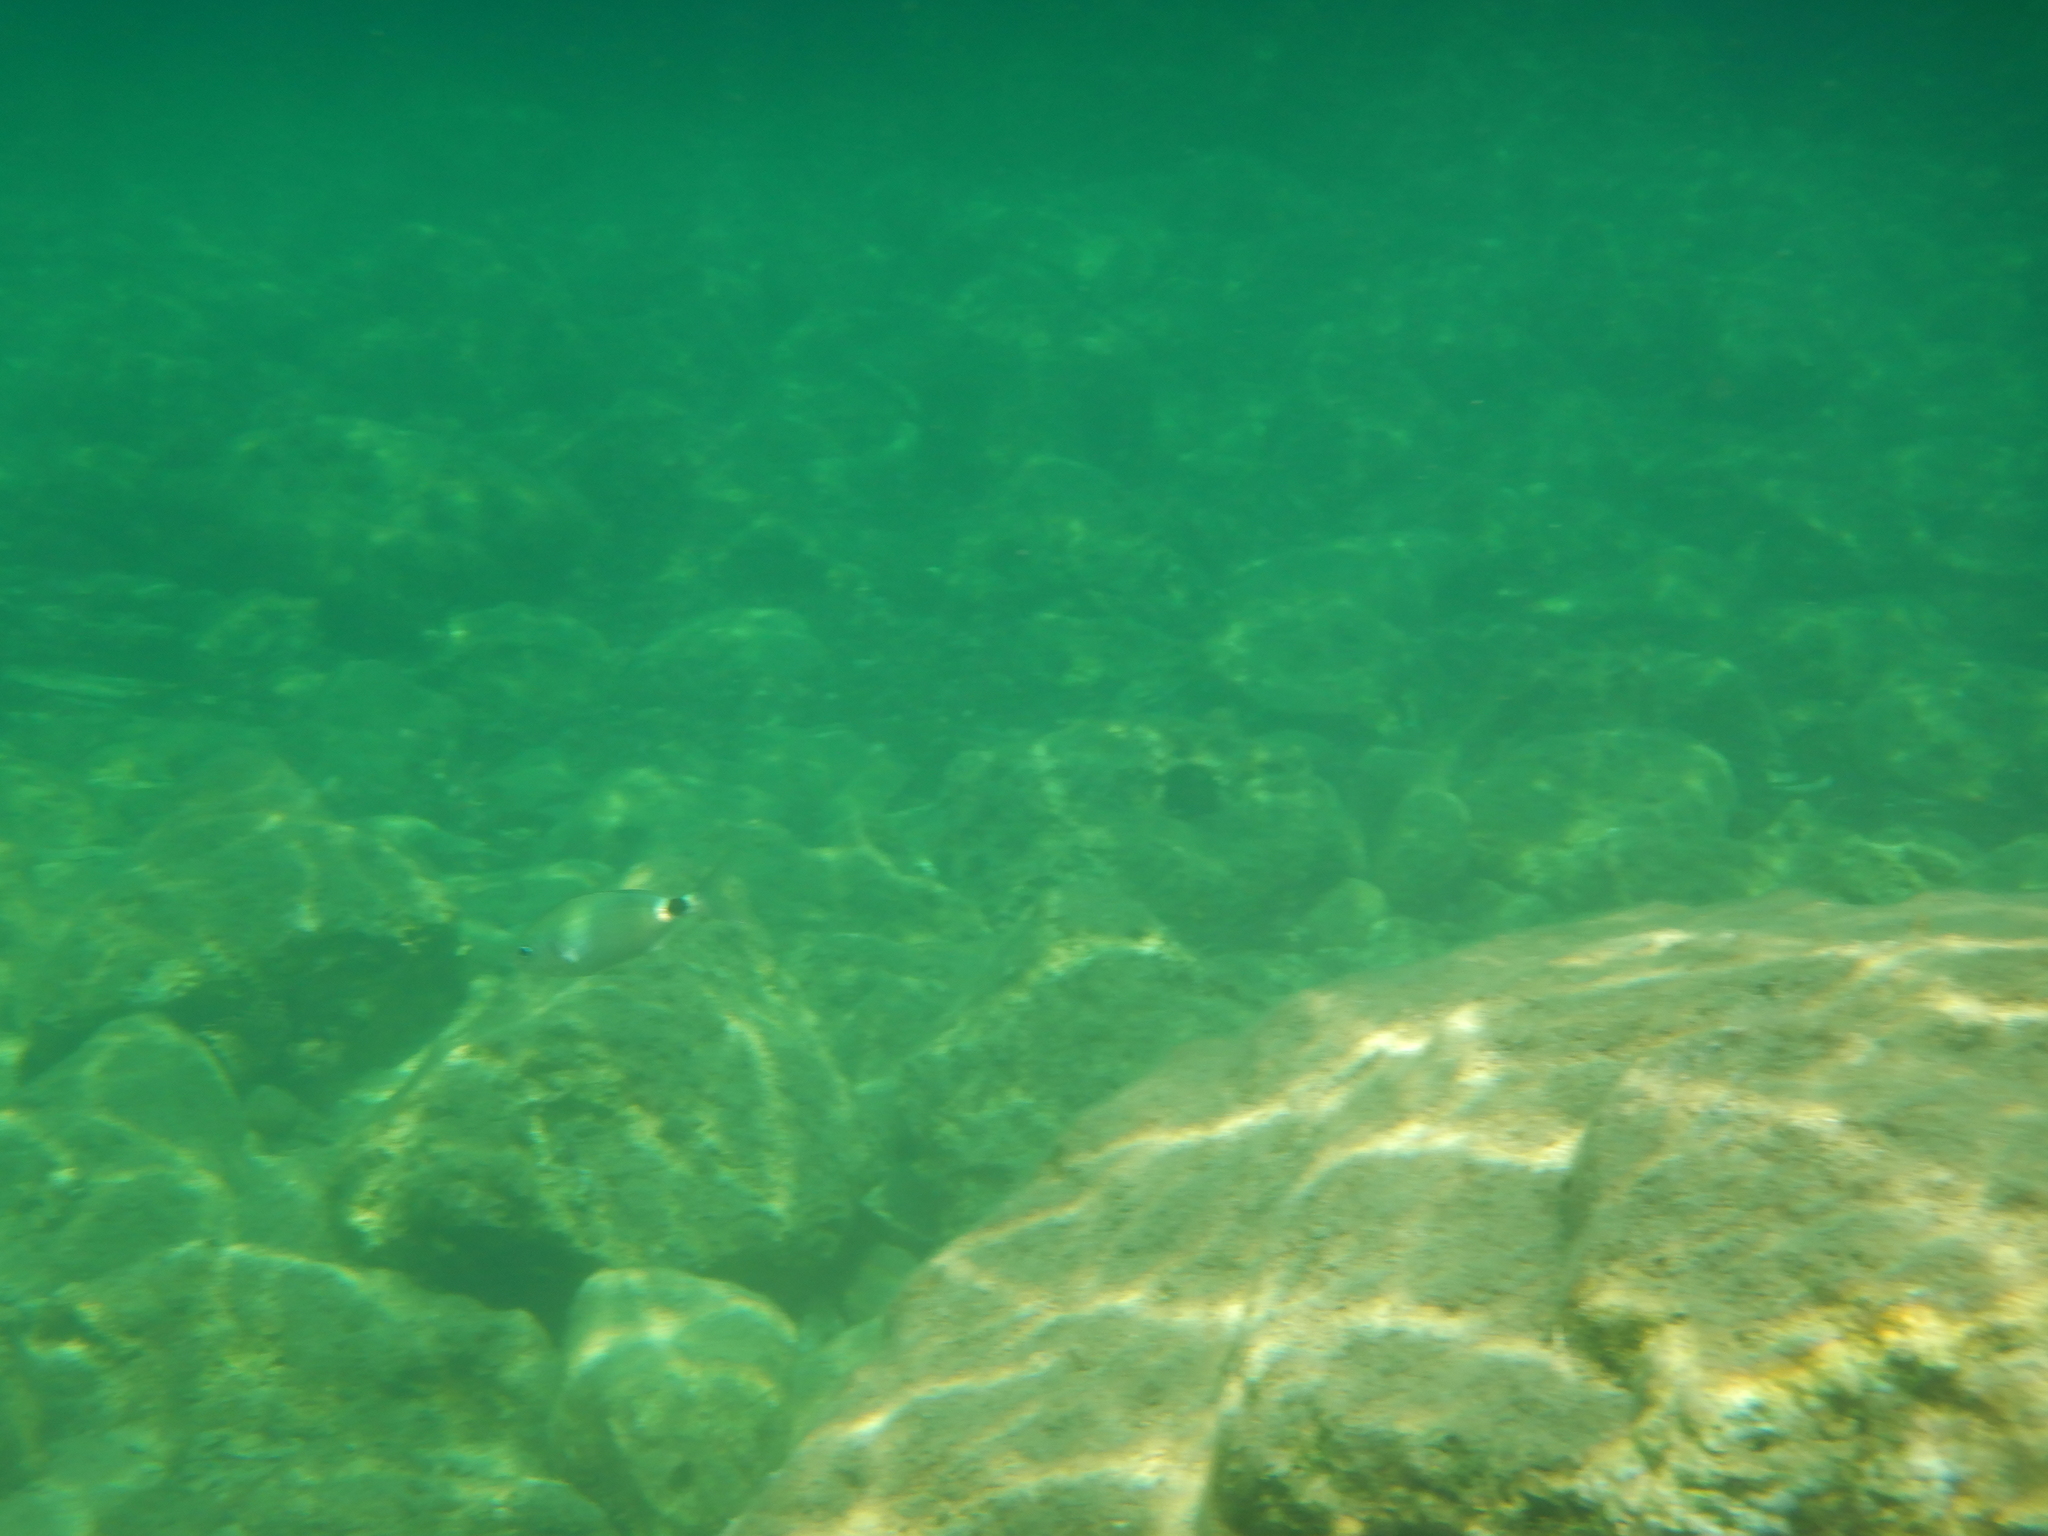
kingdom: Animalia
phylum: Chordata
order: Perciformes
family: Sparidae
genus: Oblada
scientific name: Oblada melanura
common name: Saddled seabream
